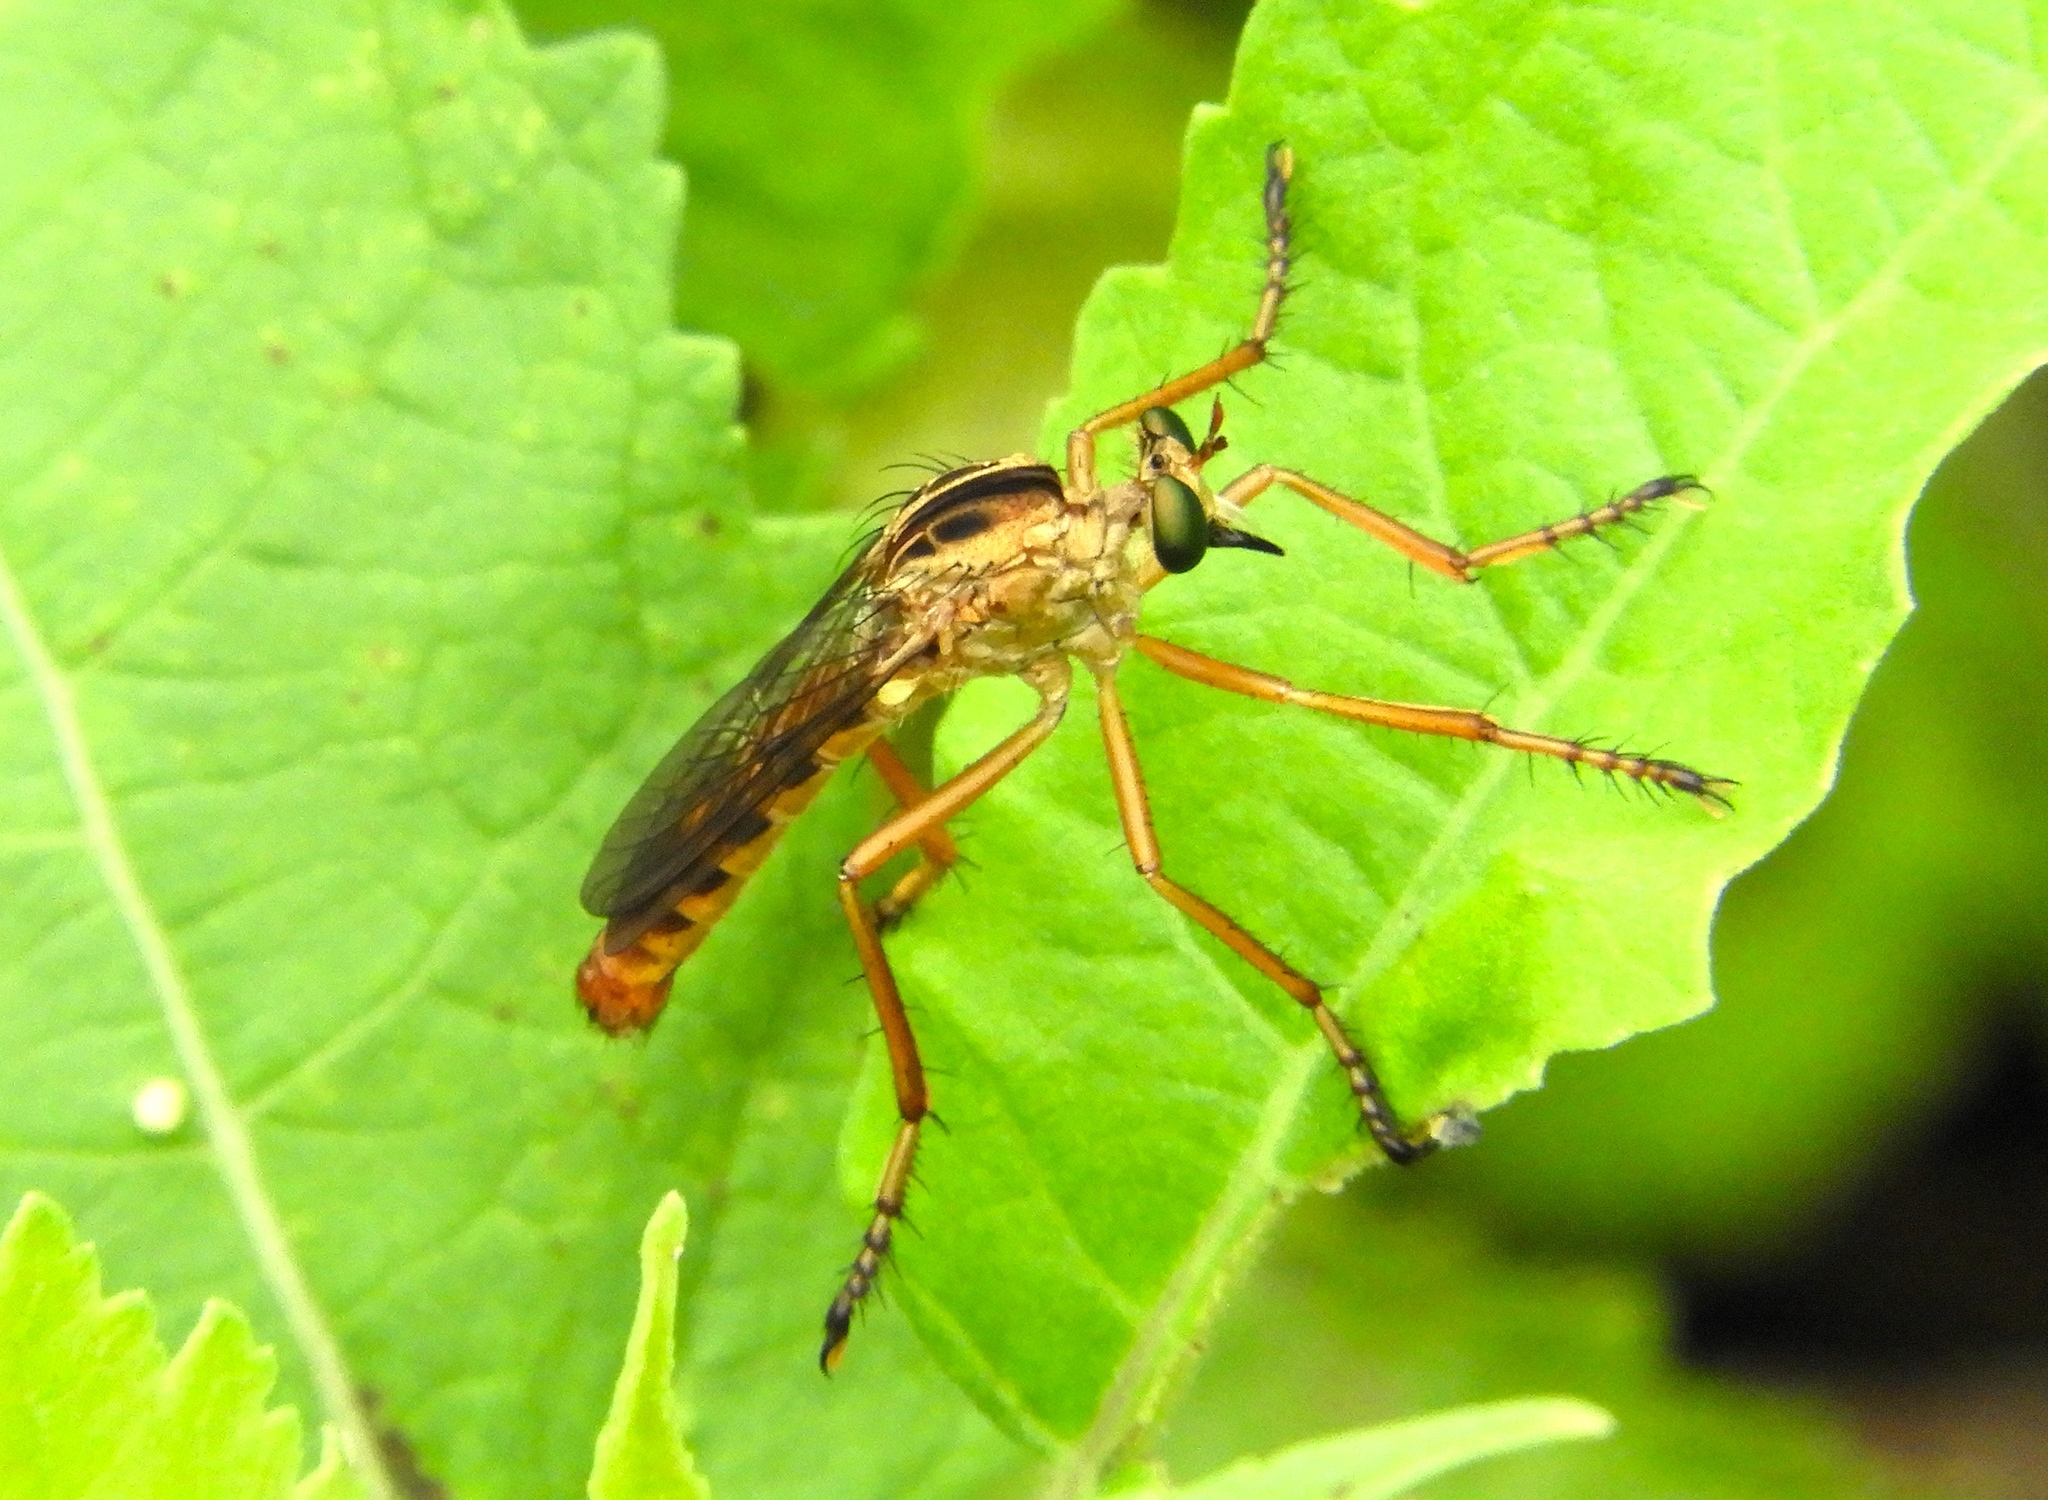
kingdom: Animalia
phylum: Arthropoda
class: Insecta
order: Diptera
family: Asilidae
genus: Diogmites
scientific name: Diogmites
